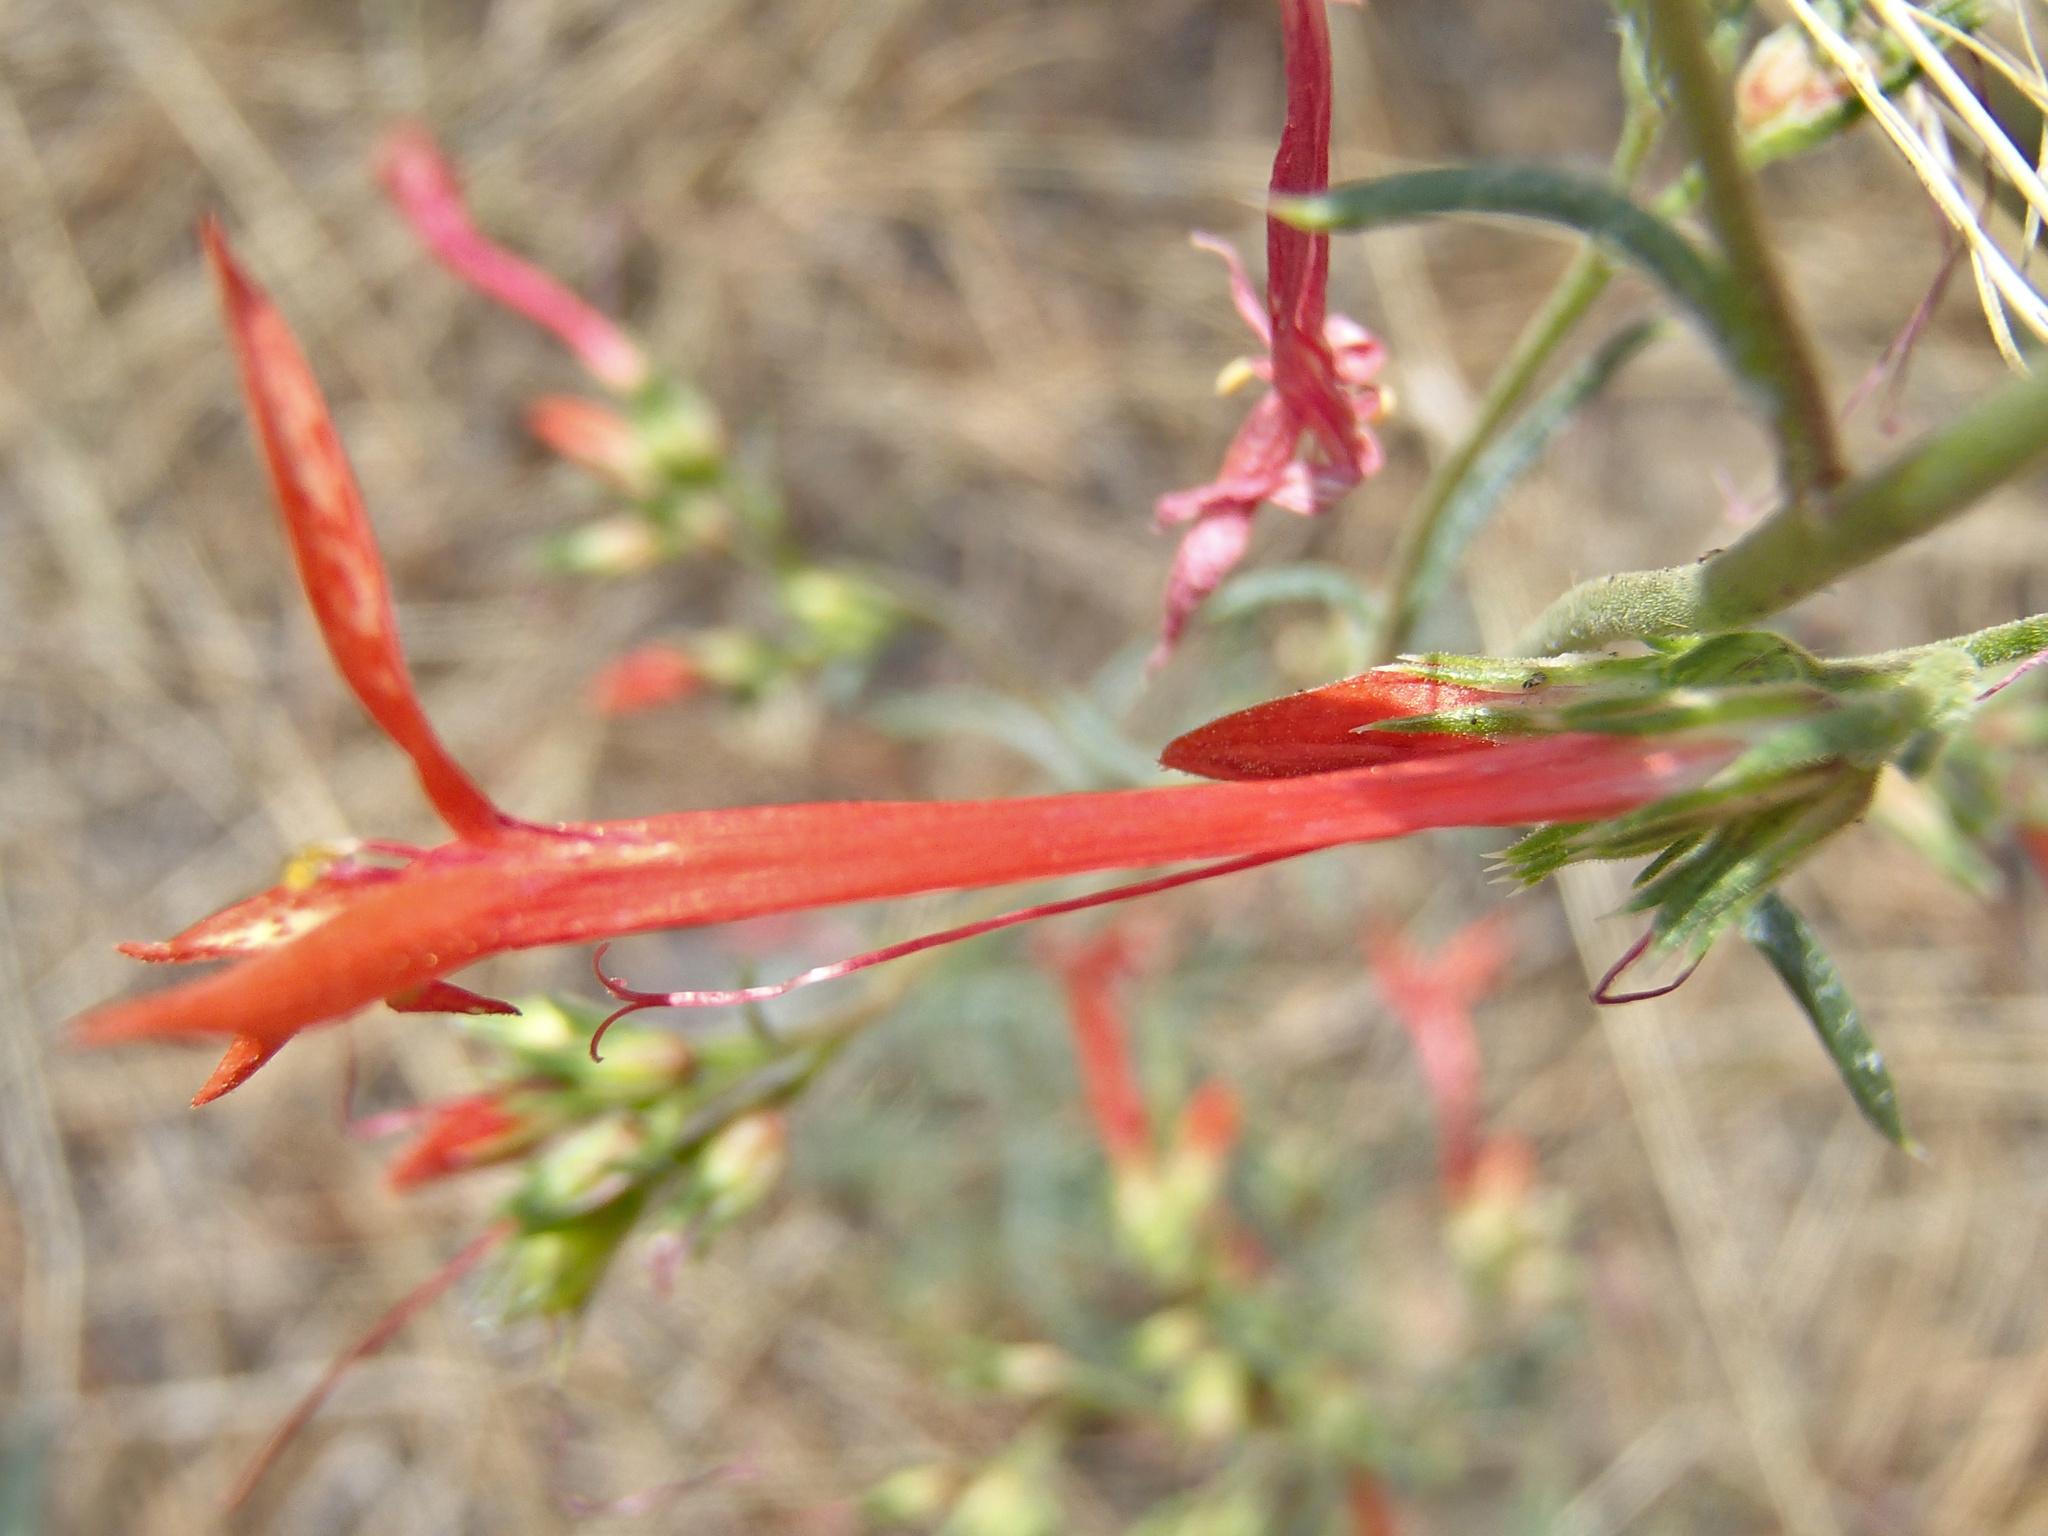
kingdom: Plantae
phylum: Tracheophyta
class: Magnoliopsida
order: Ericales
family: Polemoniaceae
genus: Ipomopsis
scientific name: Ipomopsis aggregata
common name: Scarlet gilia
